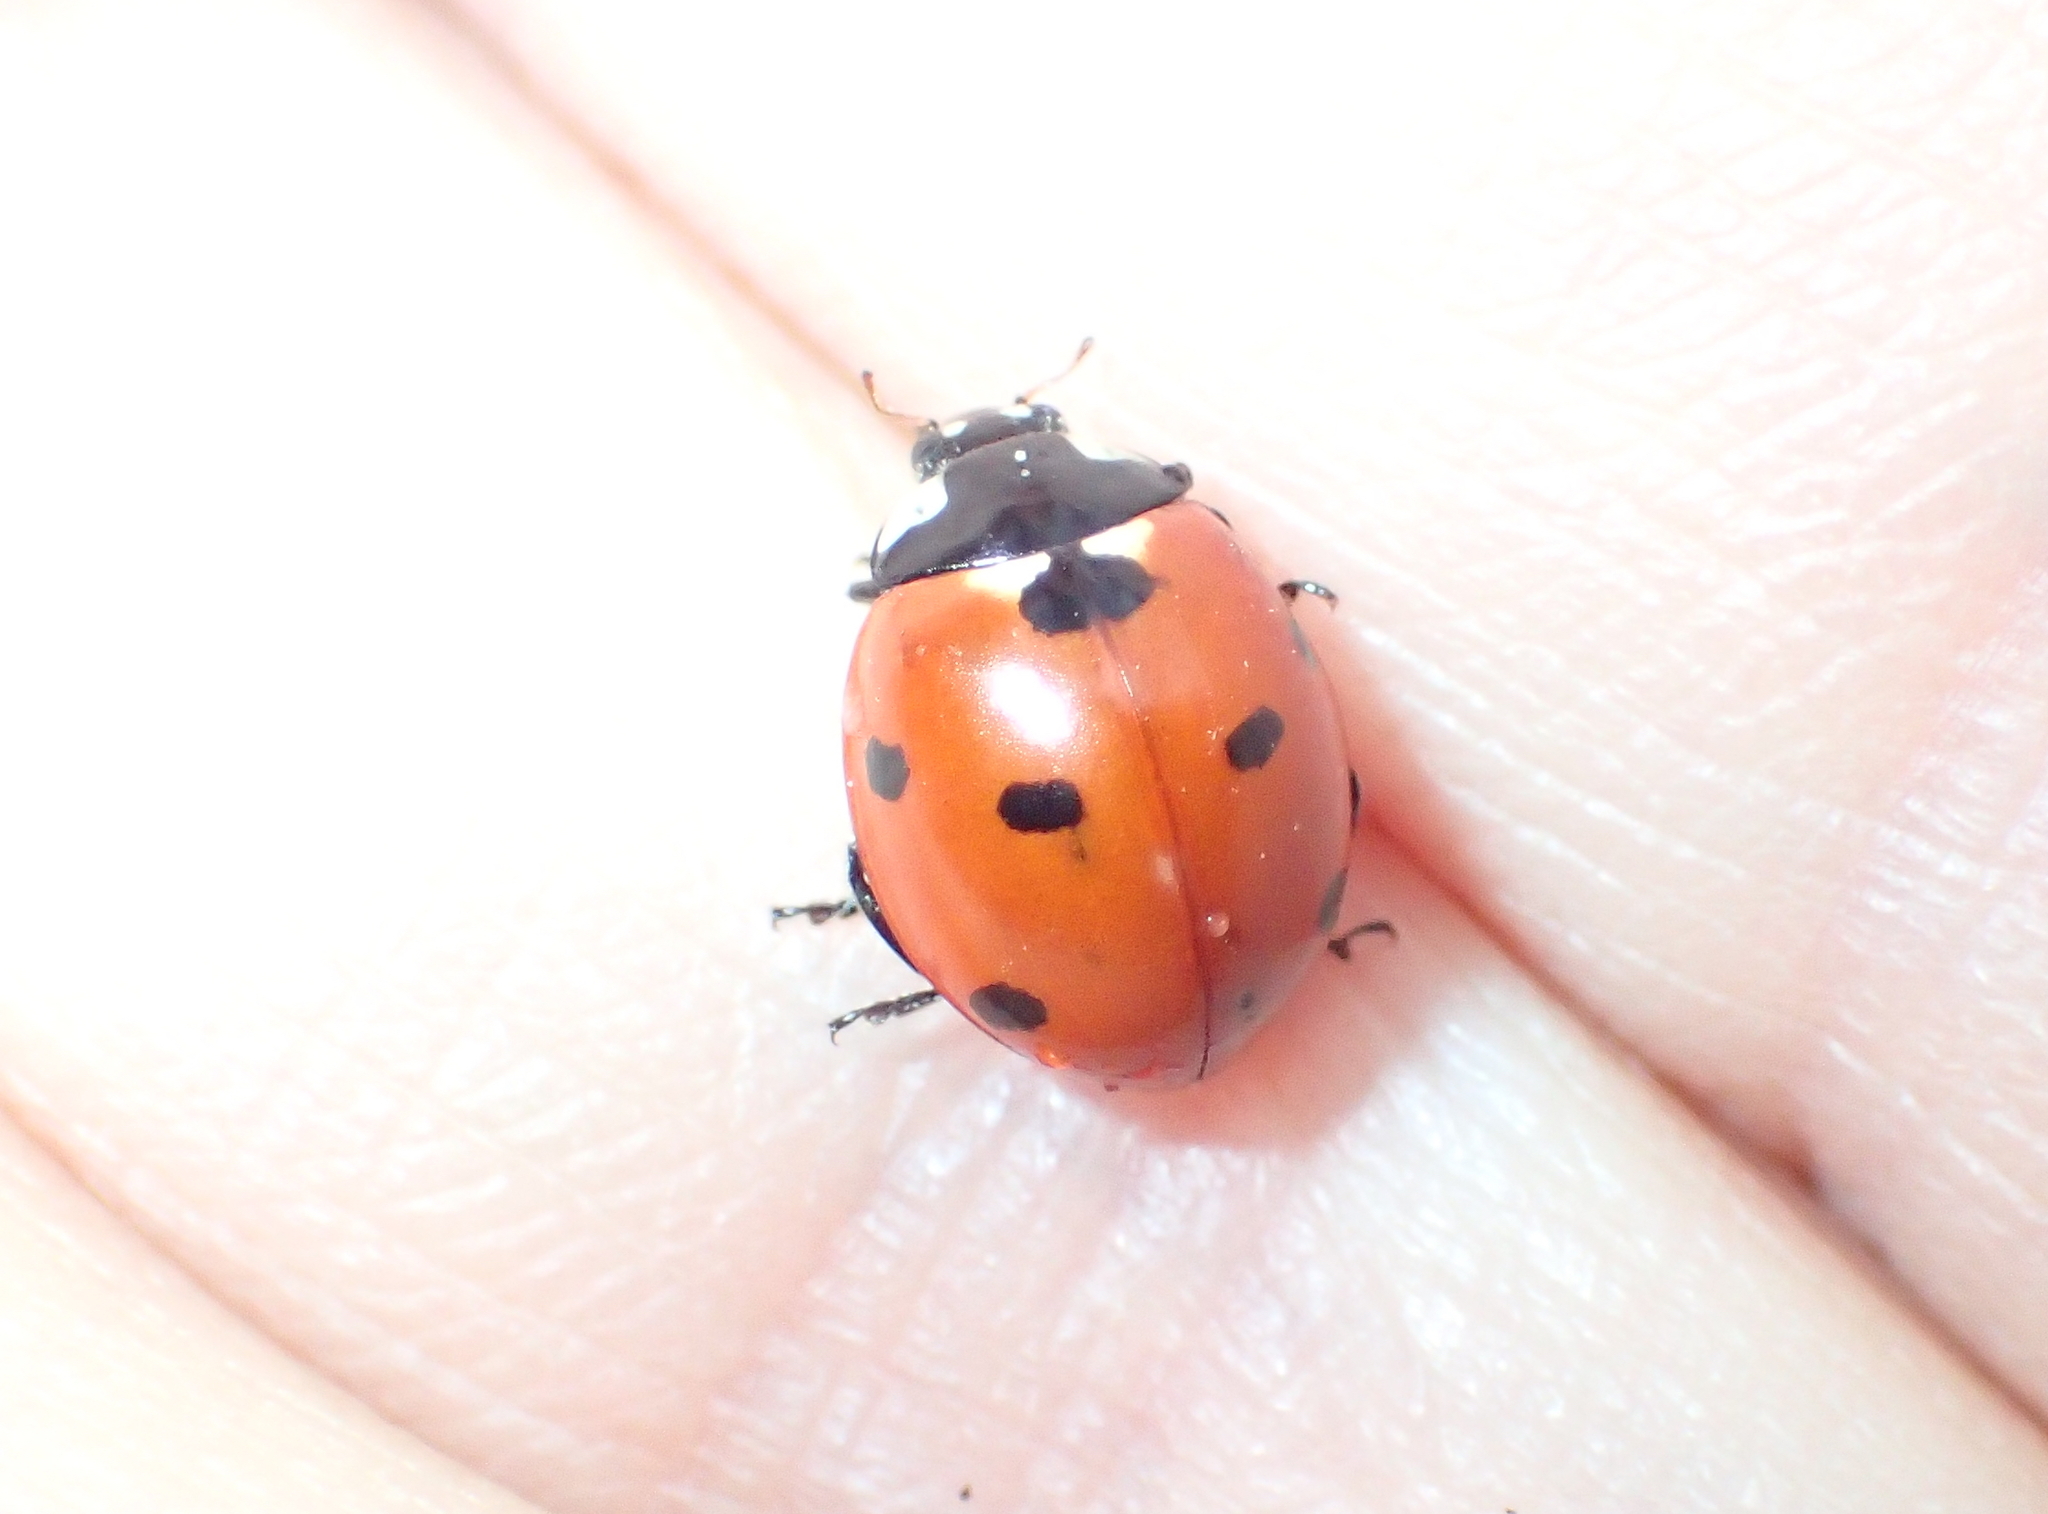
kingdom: Animalia
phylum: Arthropoda
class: Insecta
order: Coleoptera
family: Coccinellidae
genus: Coccinella
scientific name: Coccinella septempunctata
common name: Sevenspotted lady beetle
